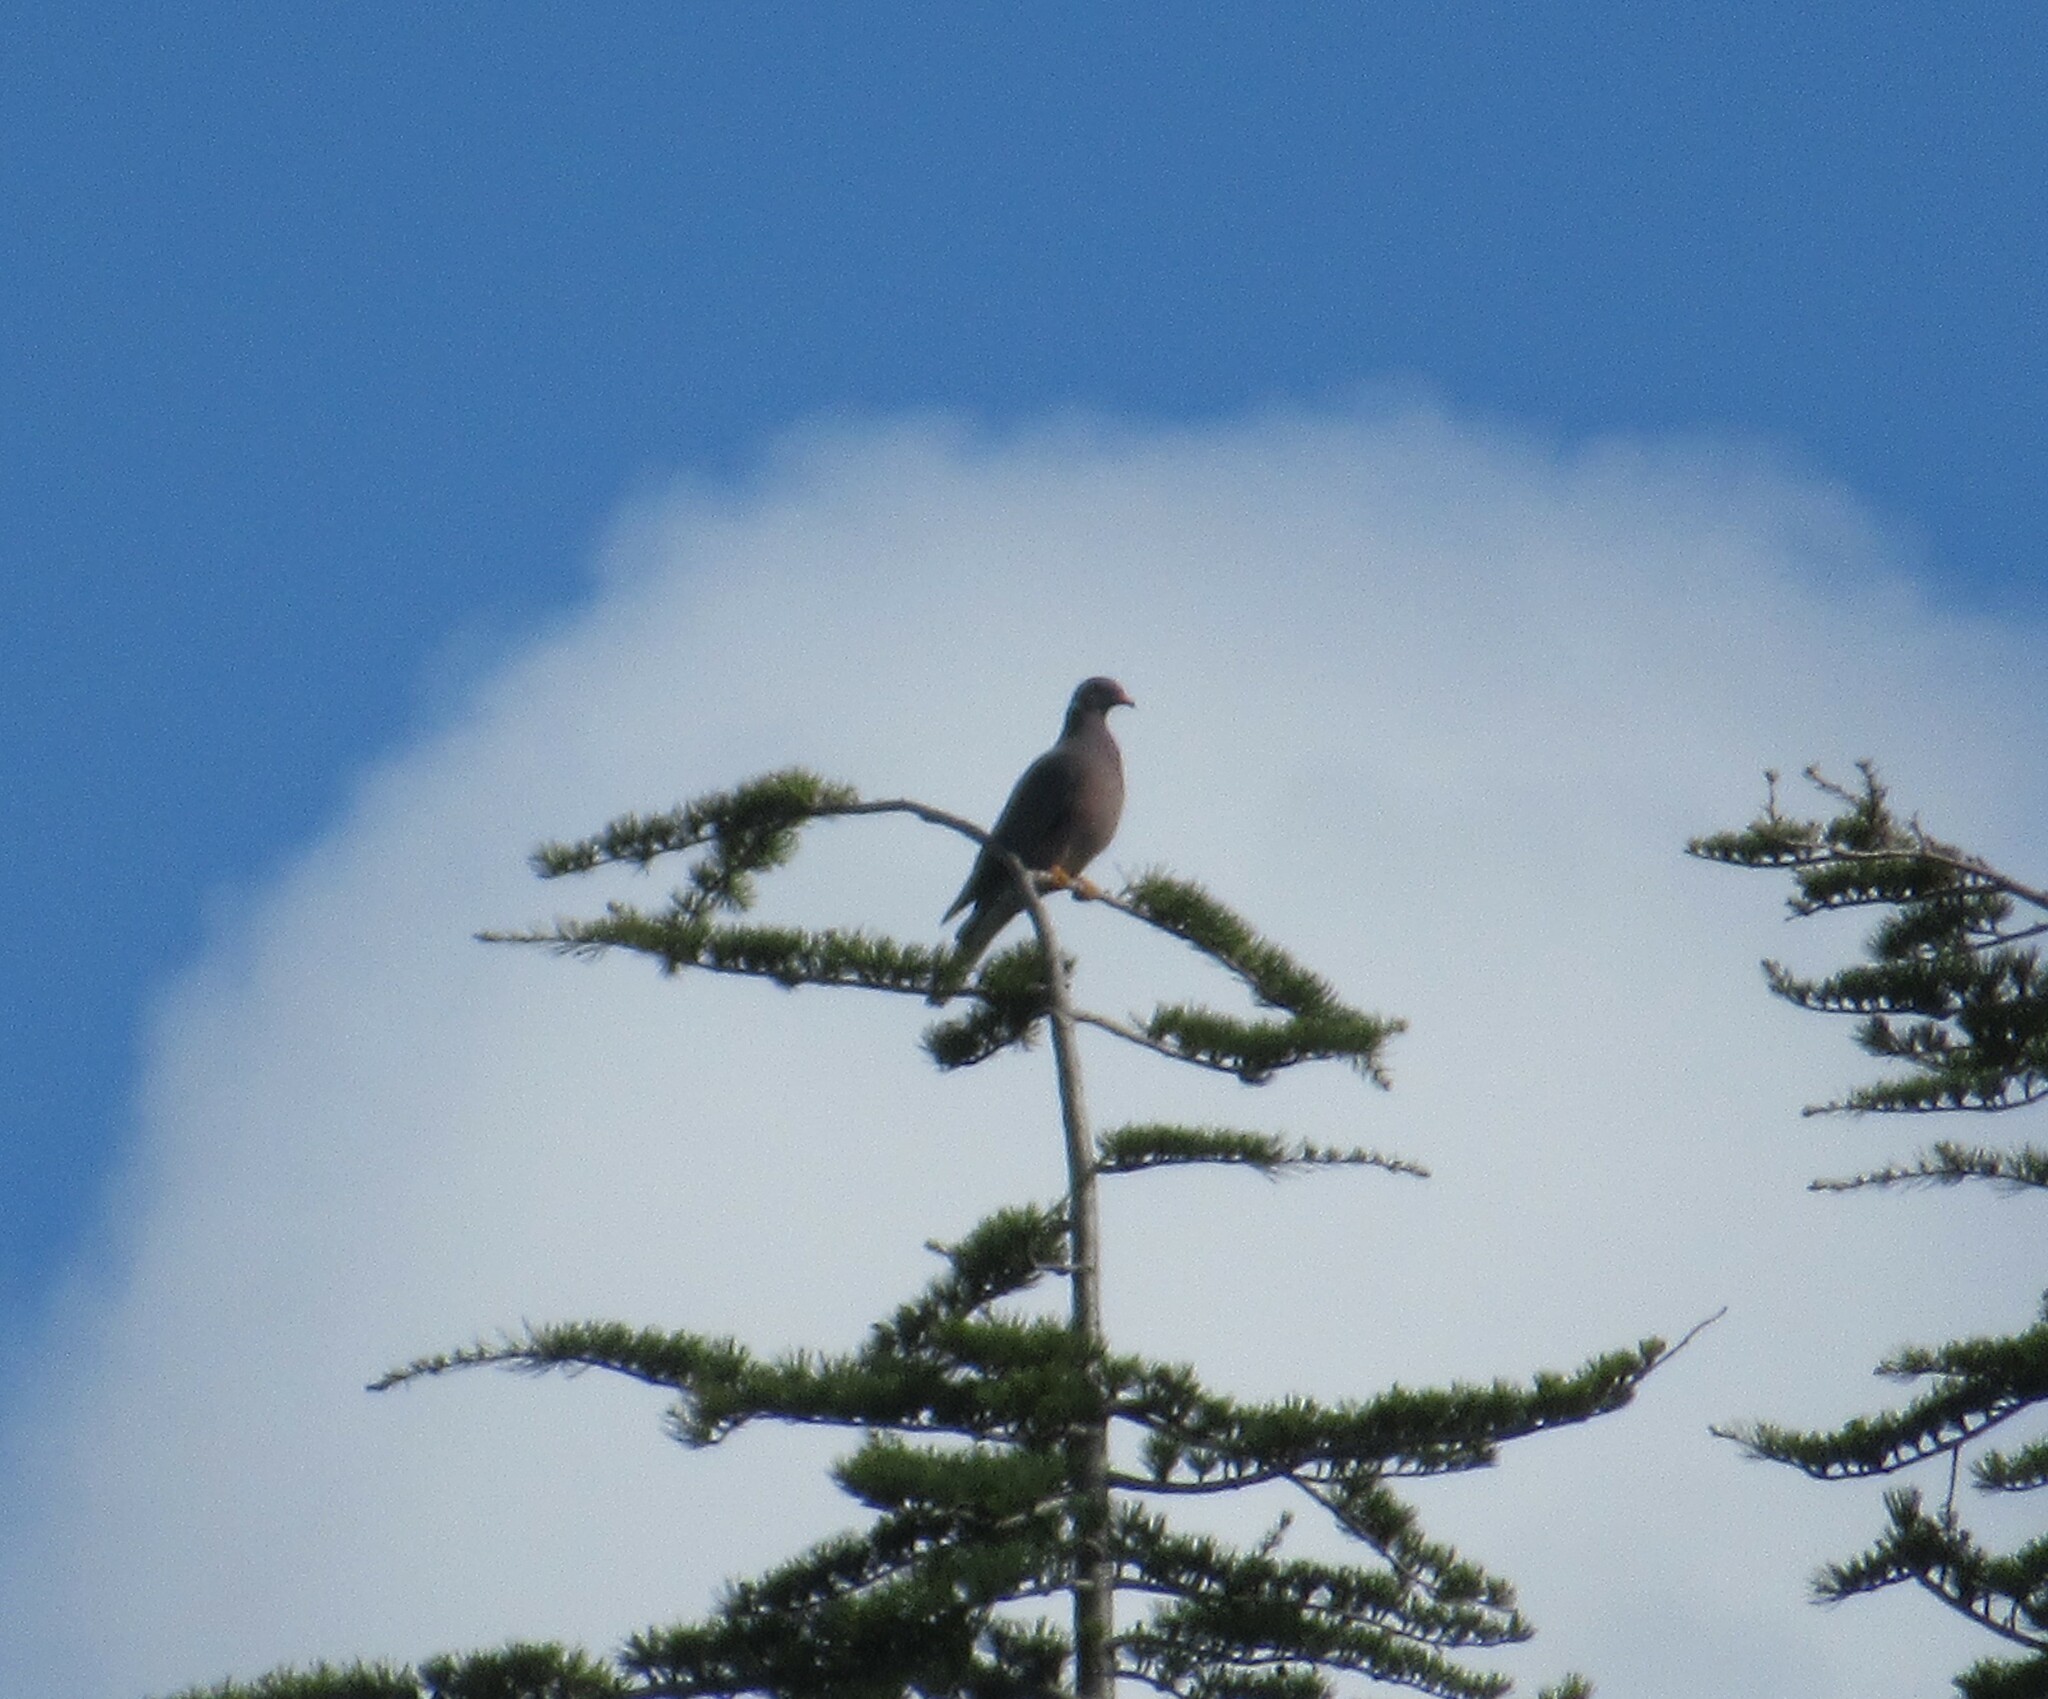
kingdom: Animalia
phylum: Chordata
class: Aves
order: Columbiformes
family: Columbidae
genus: Patagioenas
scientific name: Patagioenas fasciata
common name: Band-tailed pigeon
